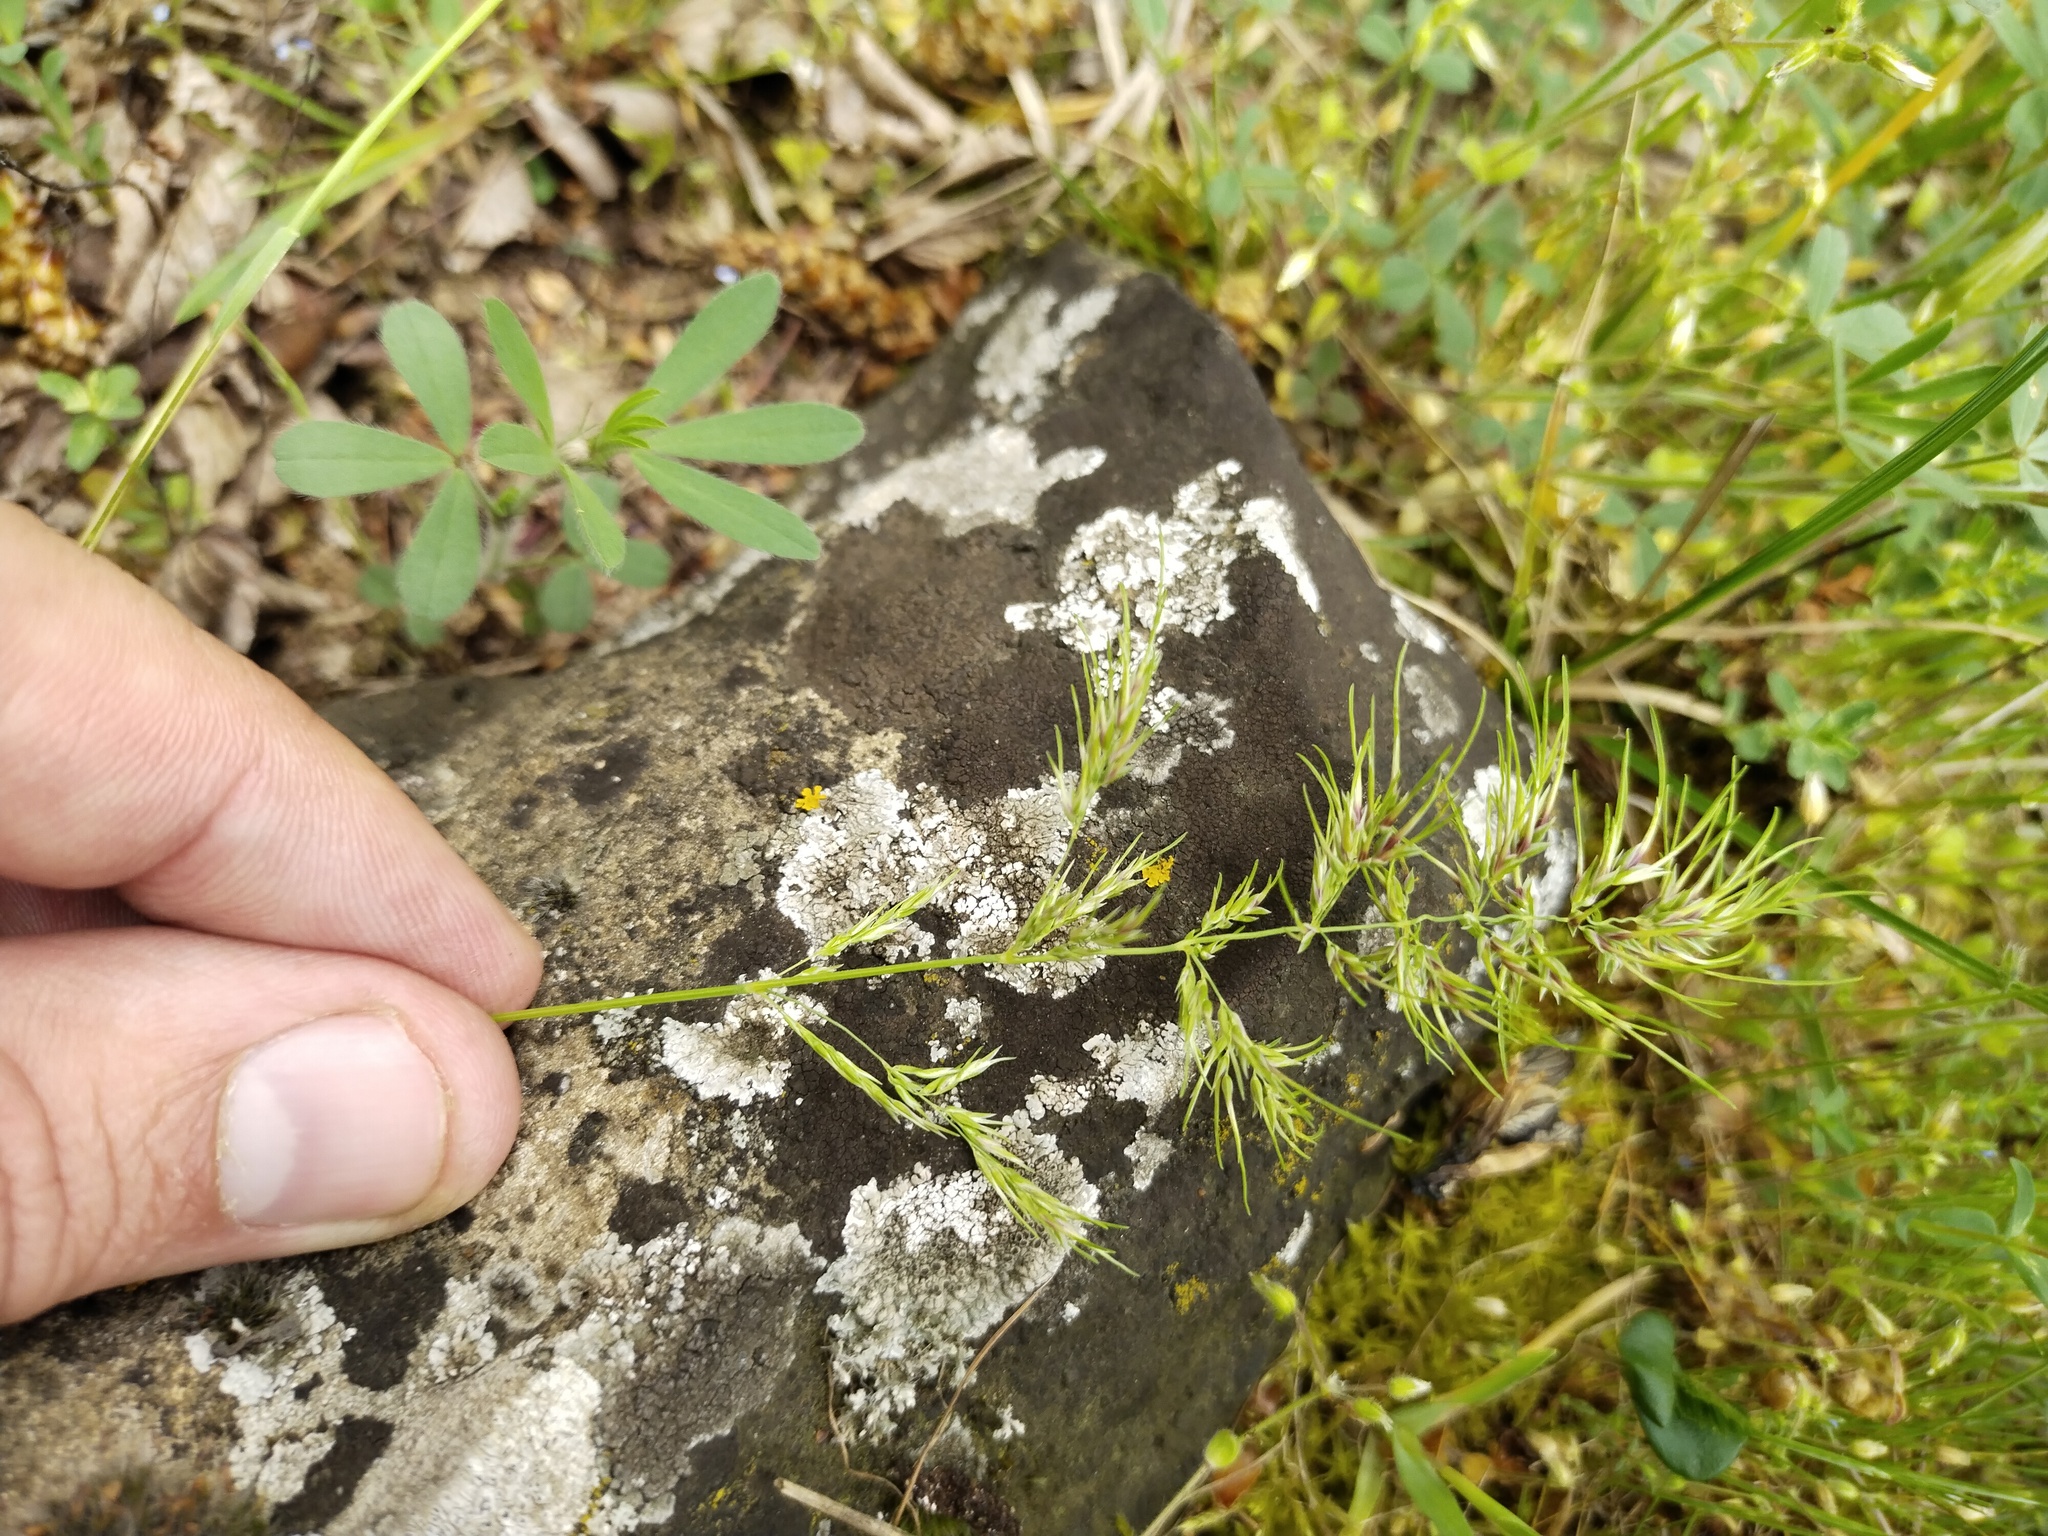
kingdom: Plantae
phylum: Tracheophyta
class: Liliopsida
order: Poales
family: Poaceae
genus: Poa
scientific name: Poa bulbosa
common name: Bulbous bluegrass
